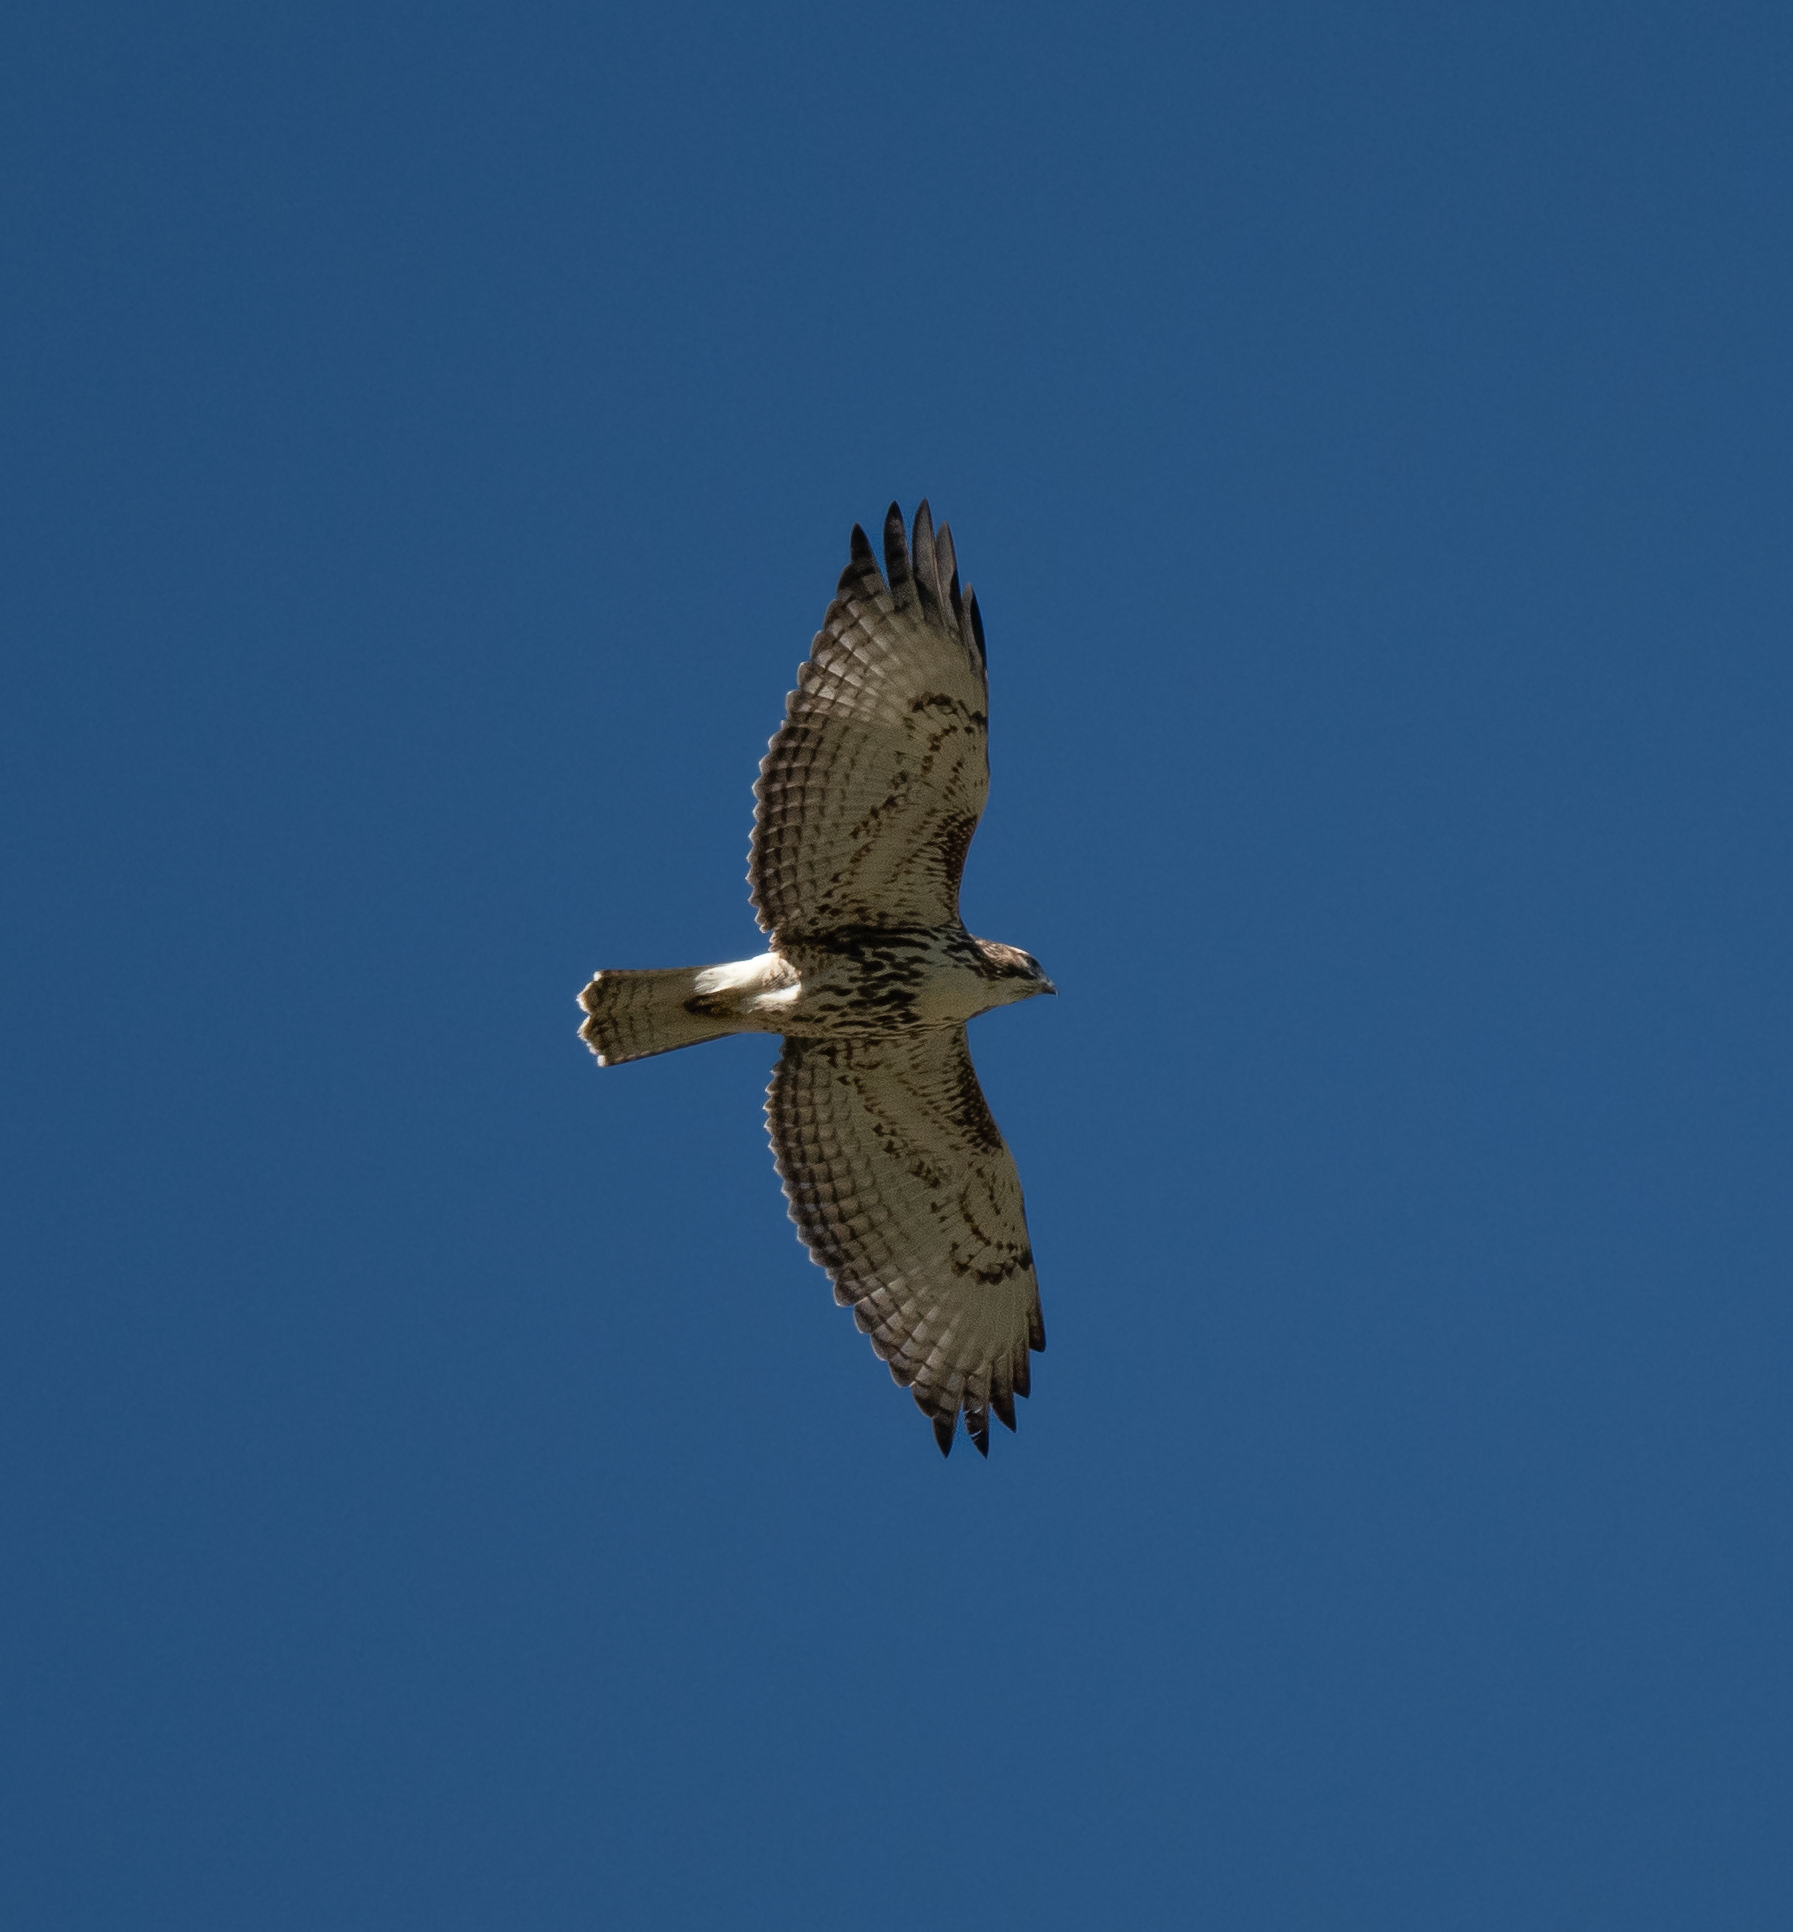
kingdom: Animalia
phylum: Chordata
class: Aves
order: Accipitriformes
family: Accipitridae
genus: Buteo
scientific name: Buteo jamaicensis
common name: Red-tailed hawk
